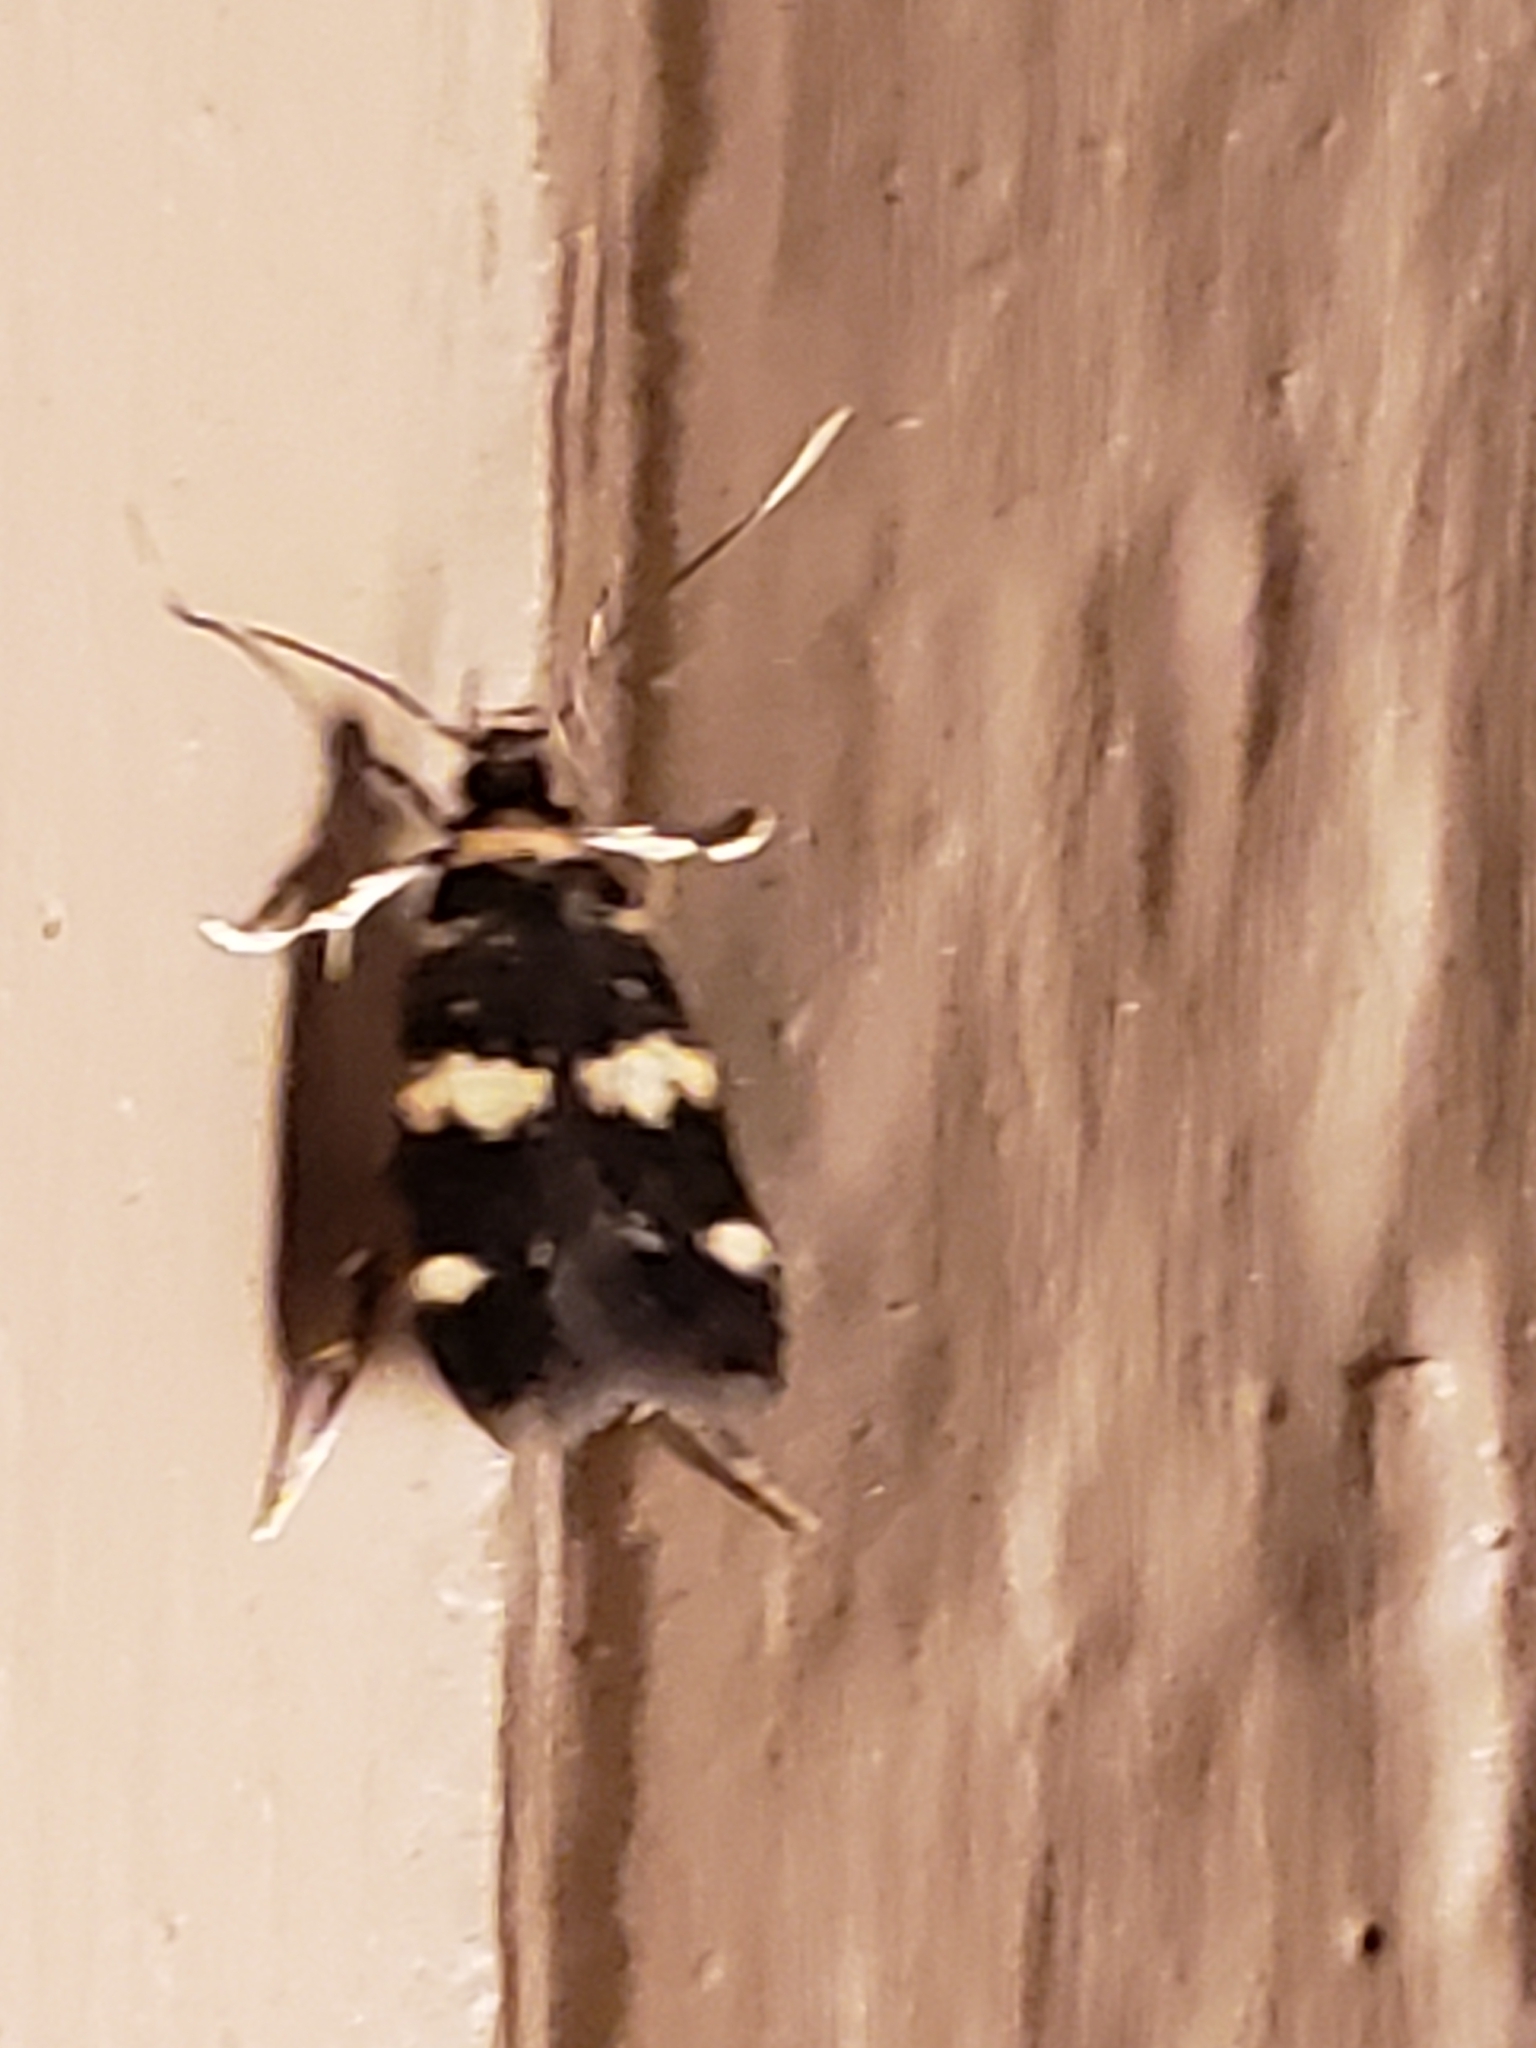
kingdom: Animalia
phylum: Arthropoda
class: Insecta
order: Lepidoptera
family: Autostichidae
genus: Oegoconia
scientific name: Oegoconia quadripuncta
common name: Four-spotted obscure
